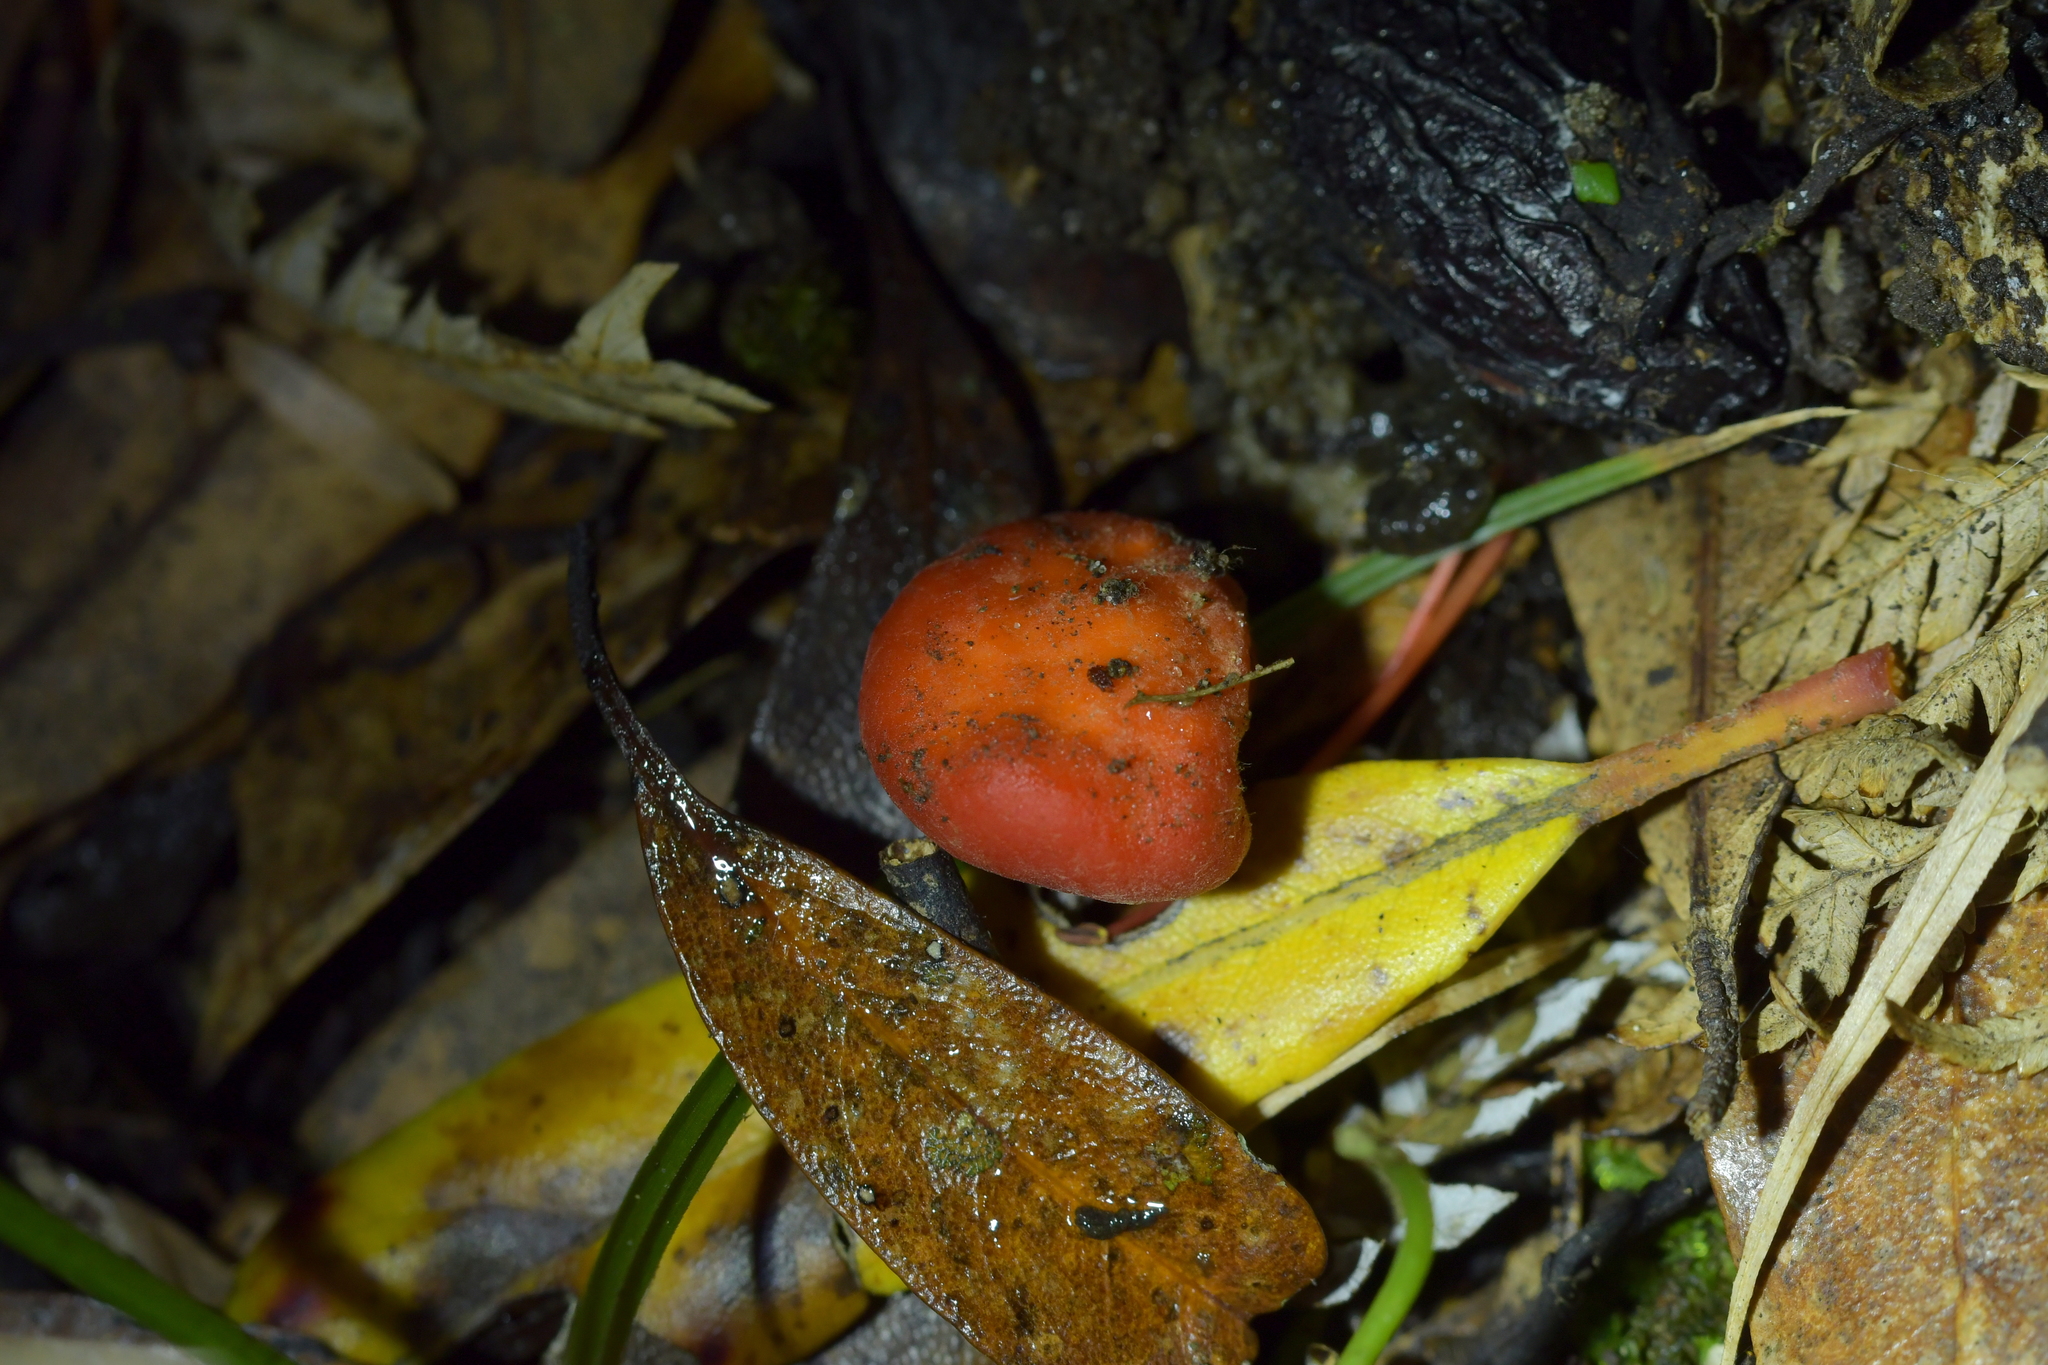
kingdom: Fungi
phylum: Ascomycota
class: Pezizomycetes
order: Pezizales
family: Pyronemataceae
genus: Paurocotylis
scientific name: Paurocotylis pila
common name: Scarlet berry truffle
